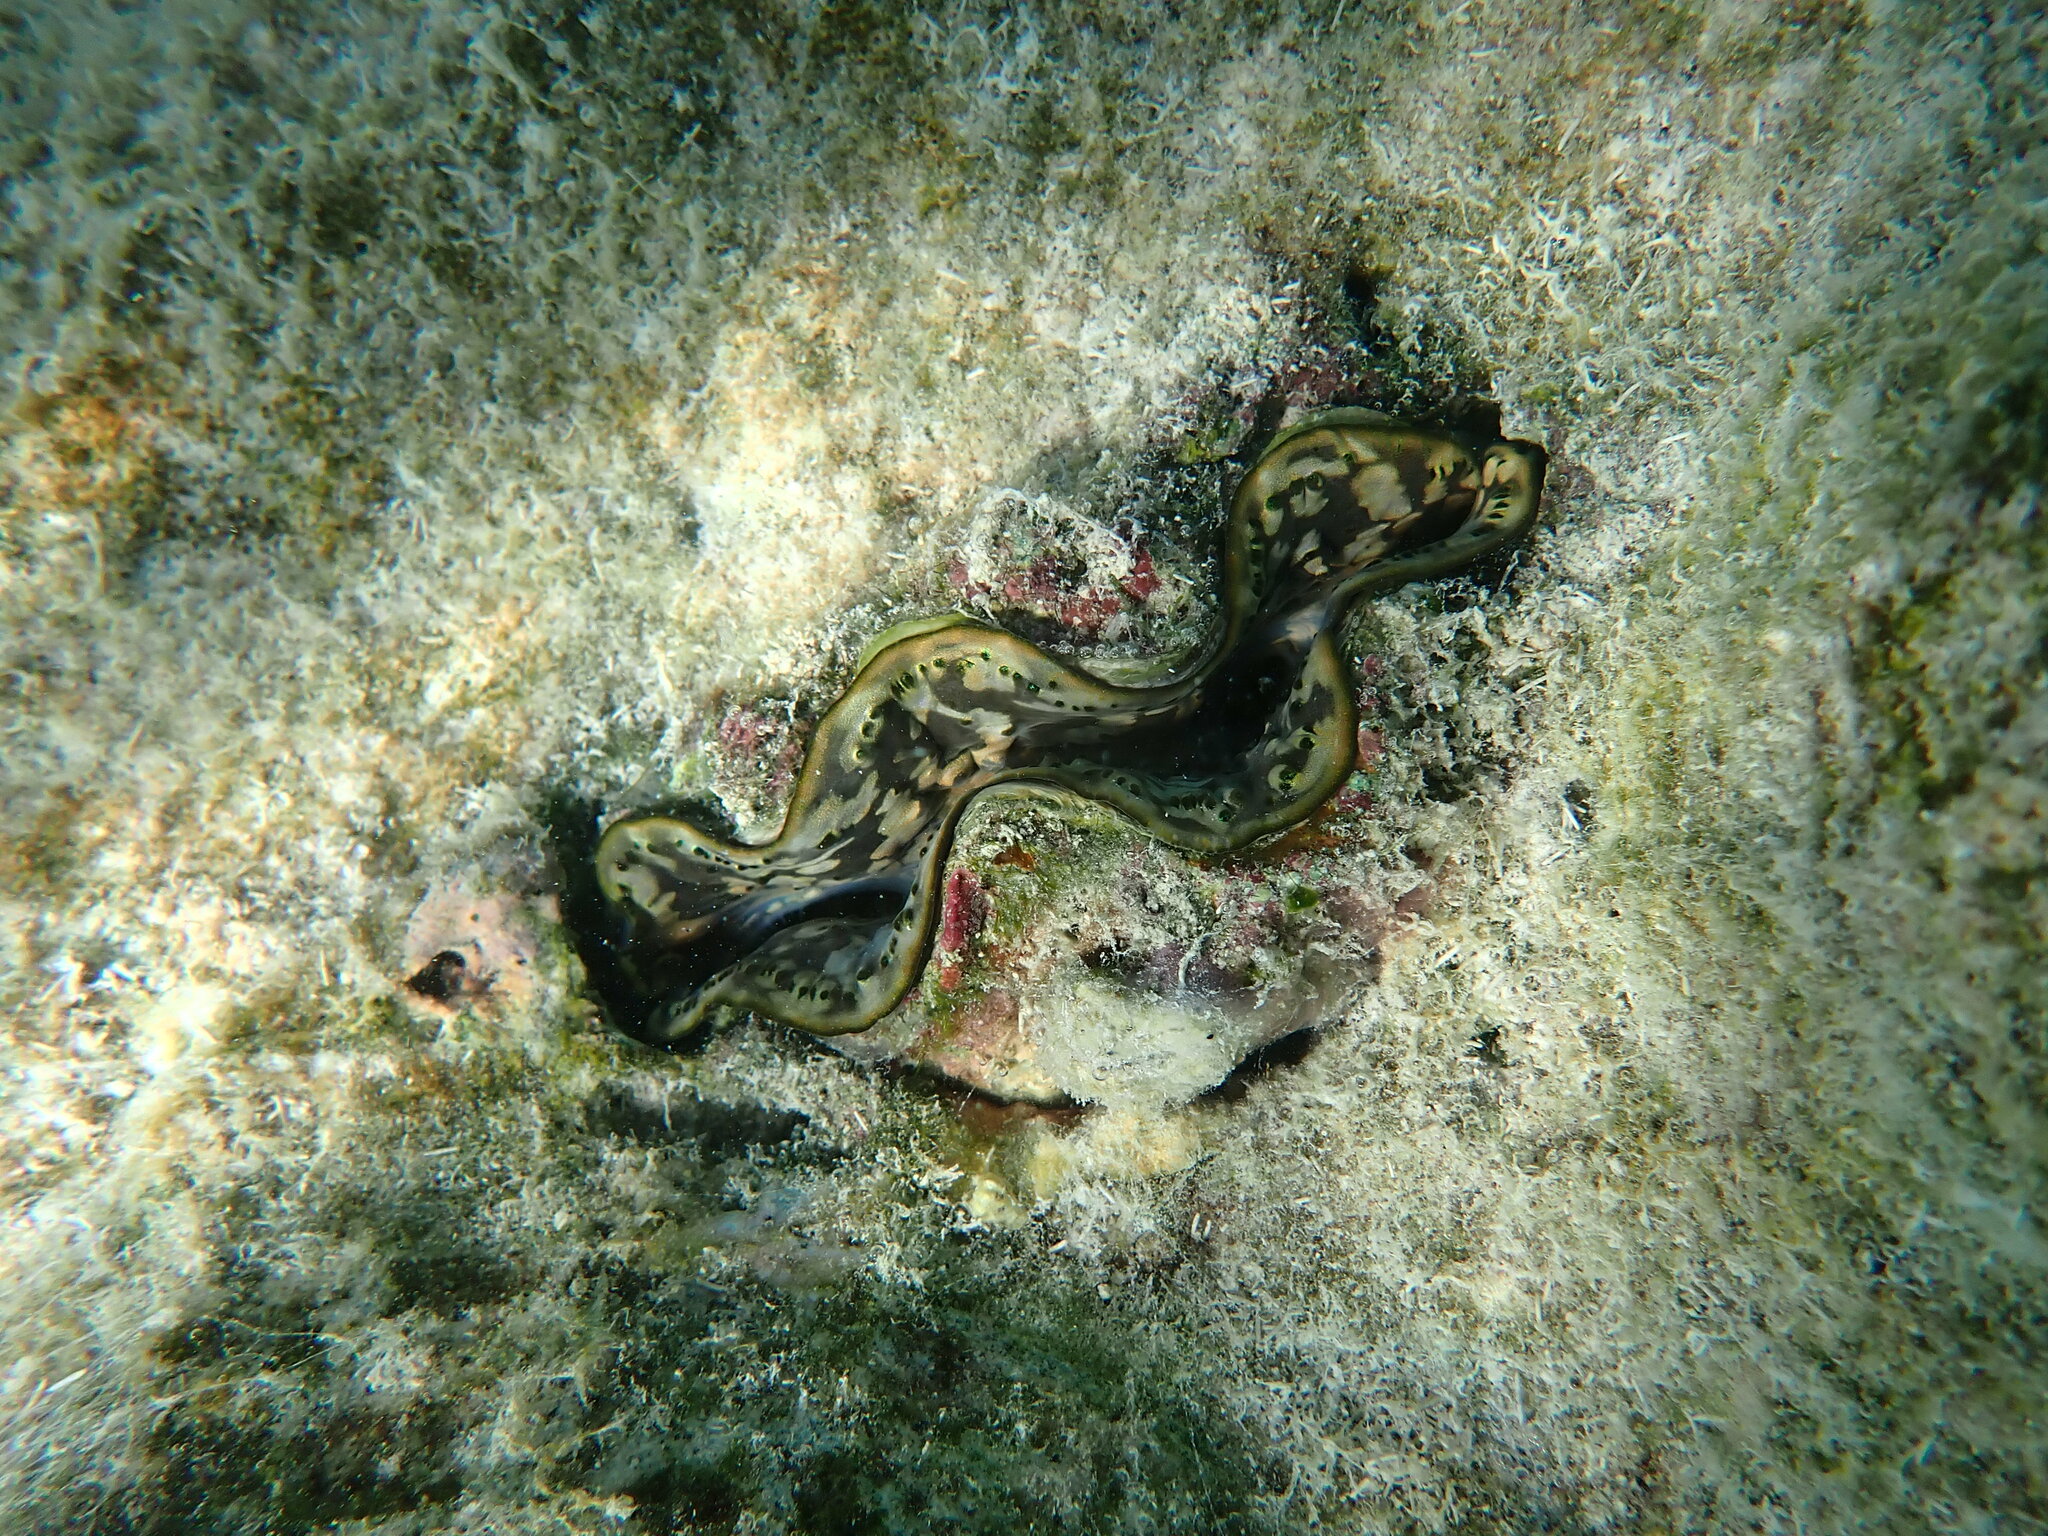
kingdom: Animalia
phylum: Mollusca
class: Bivalvia
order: Cardiida
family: Cardiidae
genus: Tridacna
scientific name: Tridacna maxima
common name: Small giant clam
